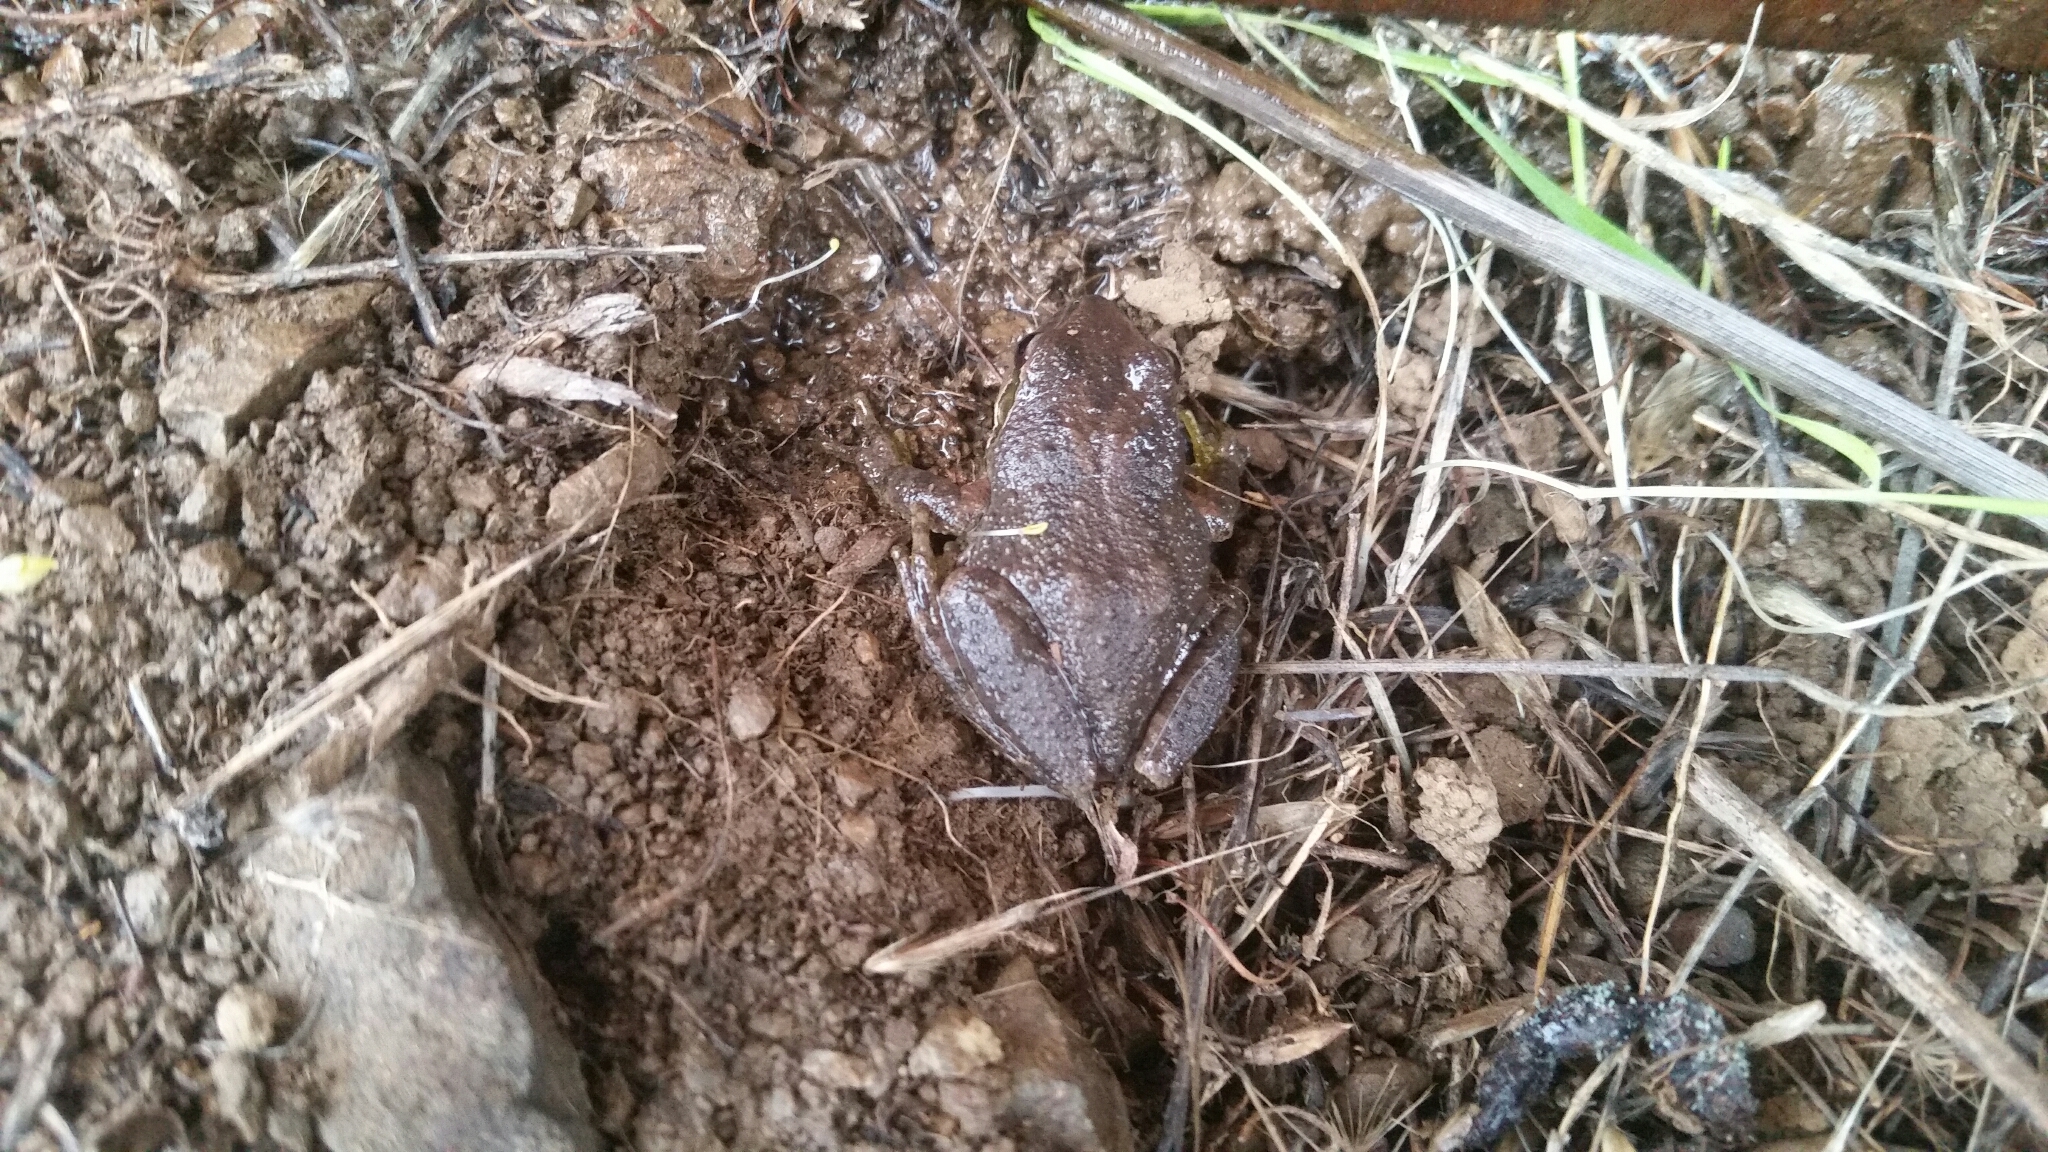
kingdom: Animalia
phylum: Chordata
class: Amphibia
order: Anura
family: Hylidae
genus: Pseudacris
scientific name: Pseudacris regilla
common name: Pacific chorus frog
